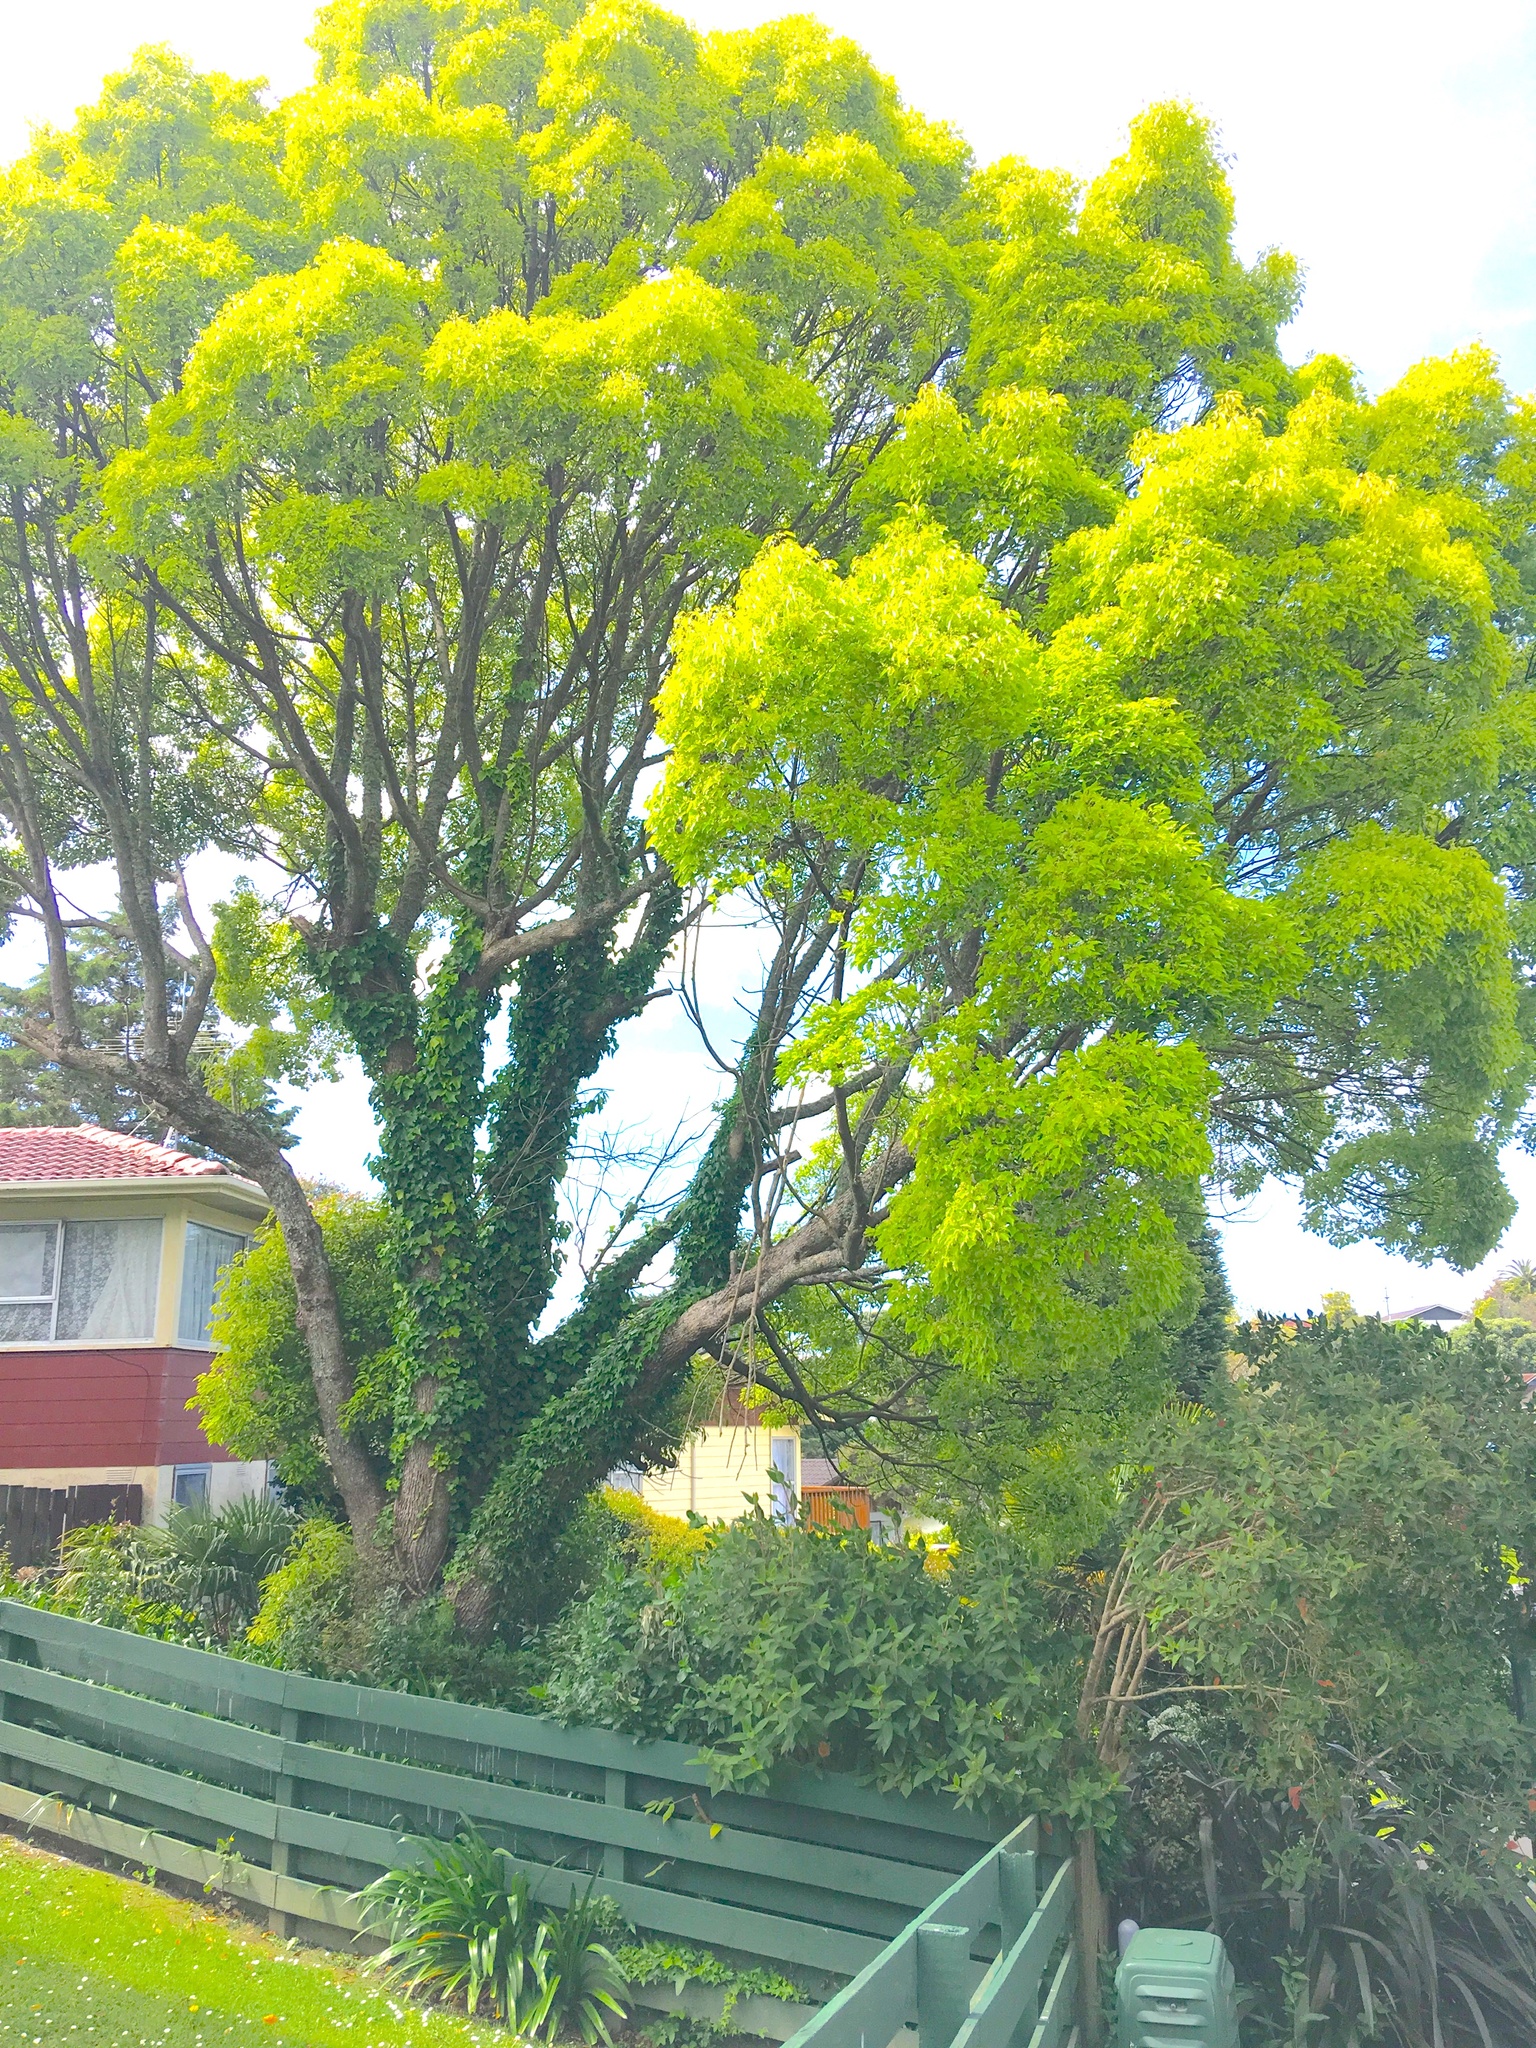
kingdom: Plantae
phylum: Tracheophyta
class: Magnoliopsida
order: Apiales
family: Araliaceae
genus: Hedera
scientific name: Hedera helix
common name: Ivy
